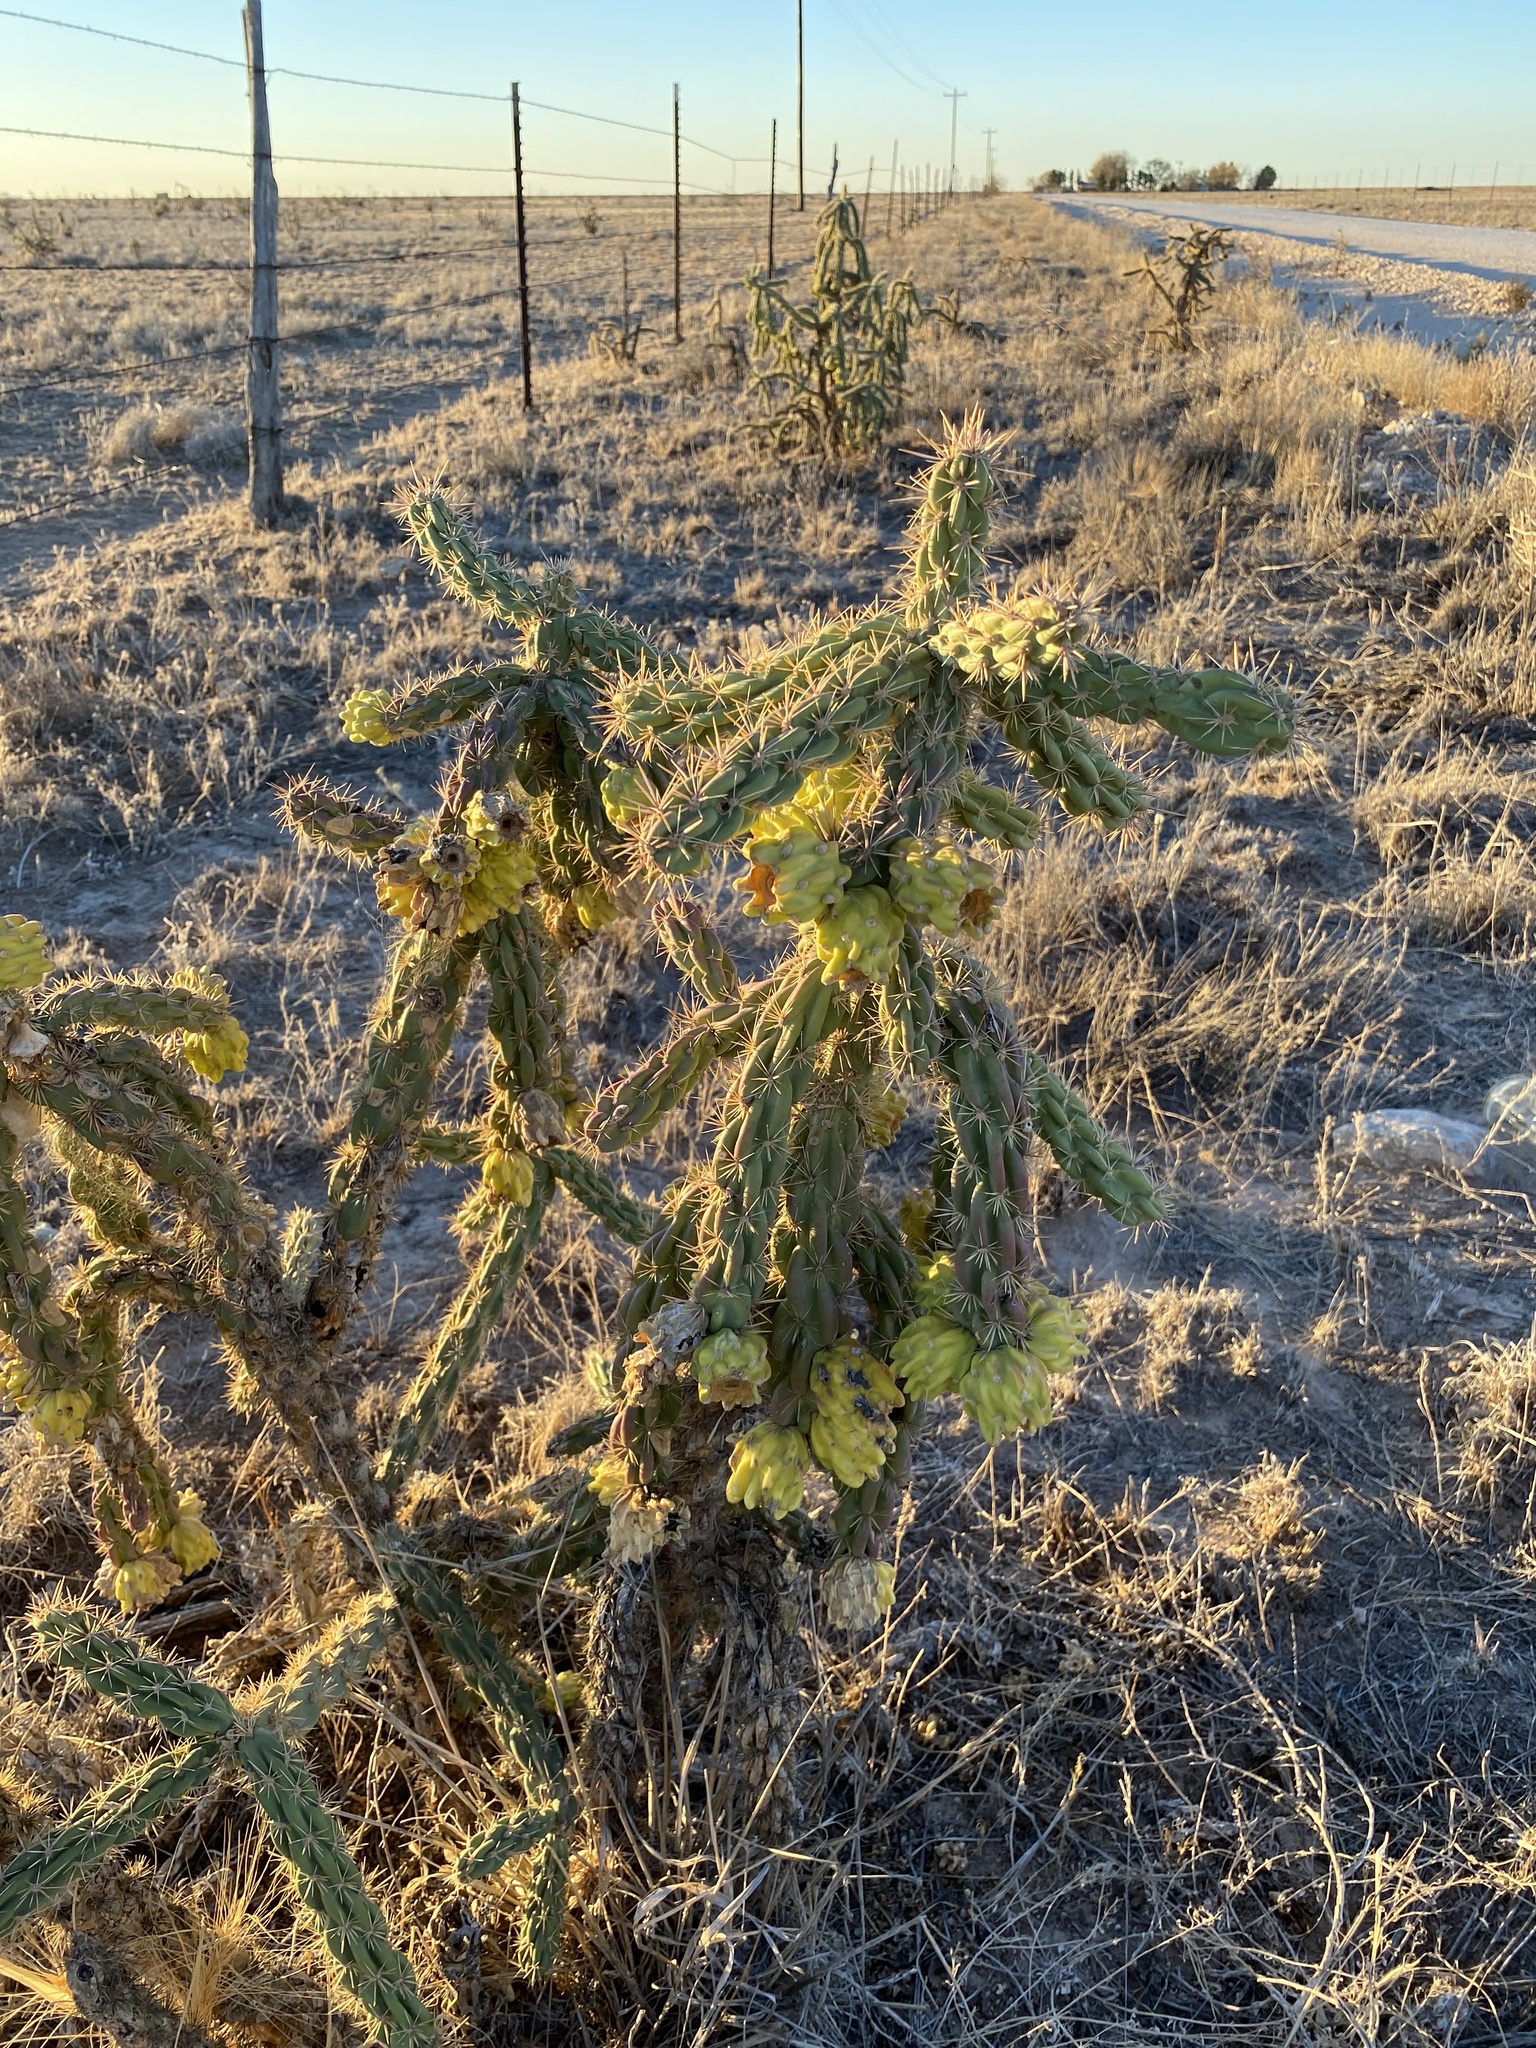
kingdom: Plantae
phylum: Tracheophyta
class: Magnoliopsida
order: Caryophyllales
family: Cactaceae
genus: Cylindropuntia
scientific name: Cylindropuntia imbricata
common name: Candelabrum cactus
